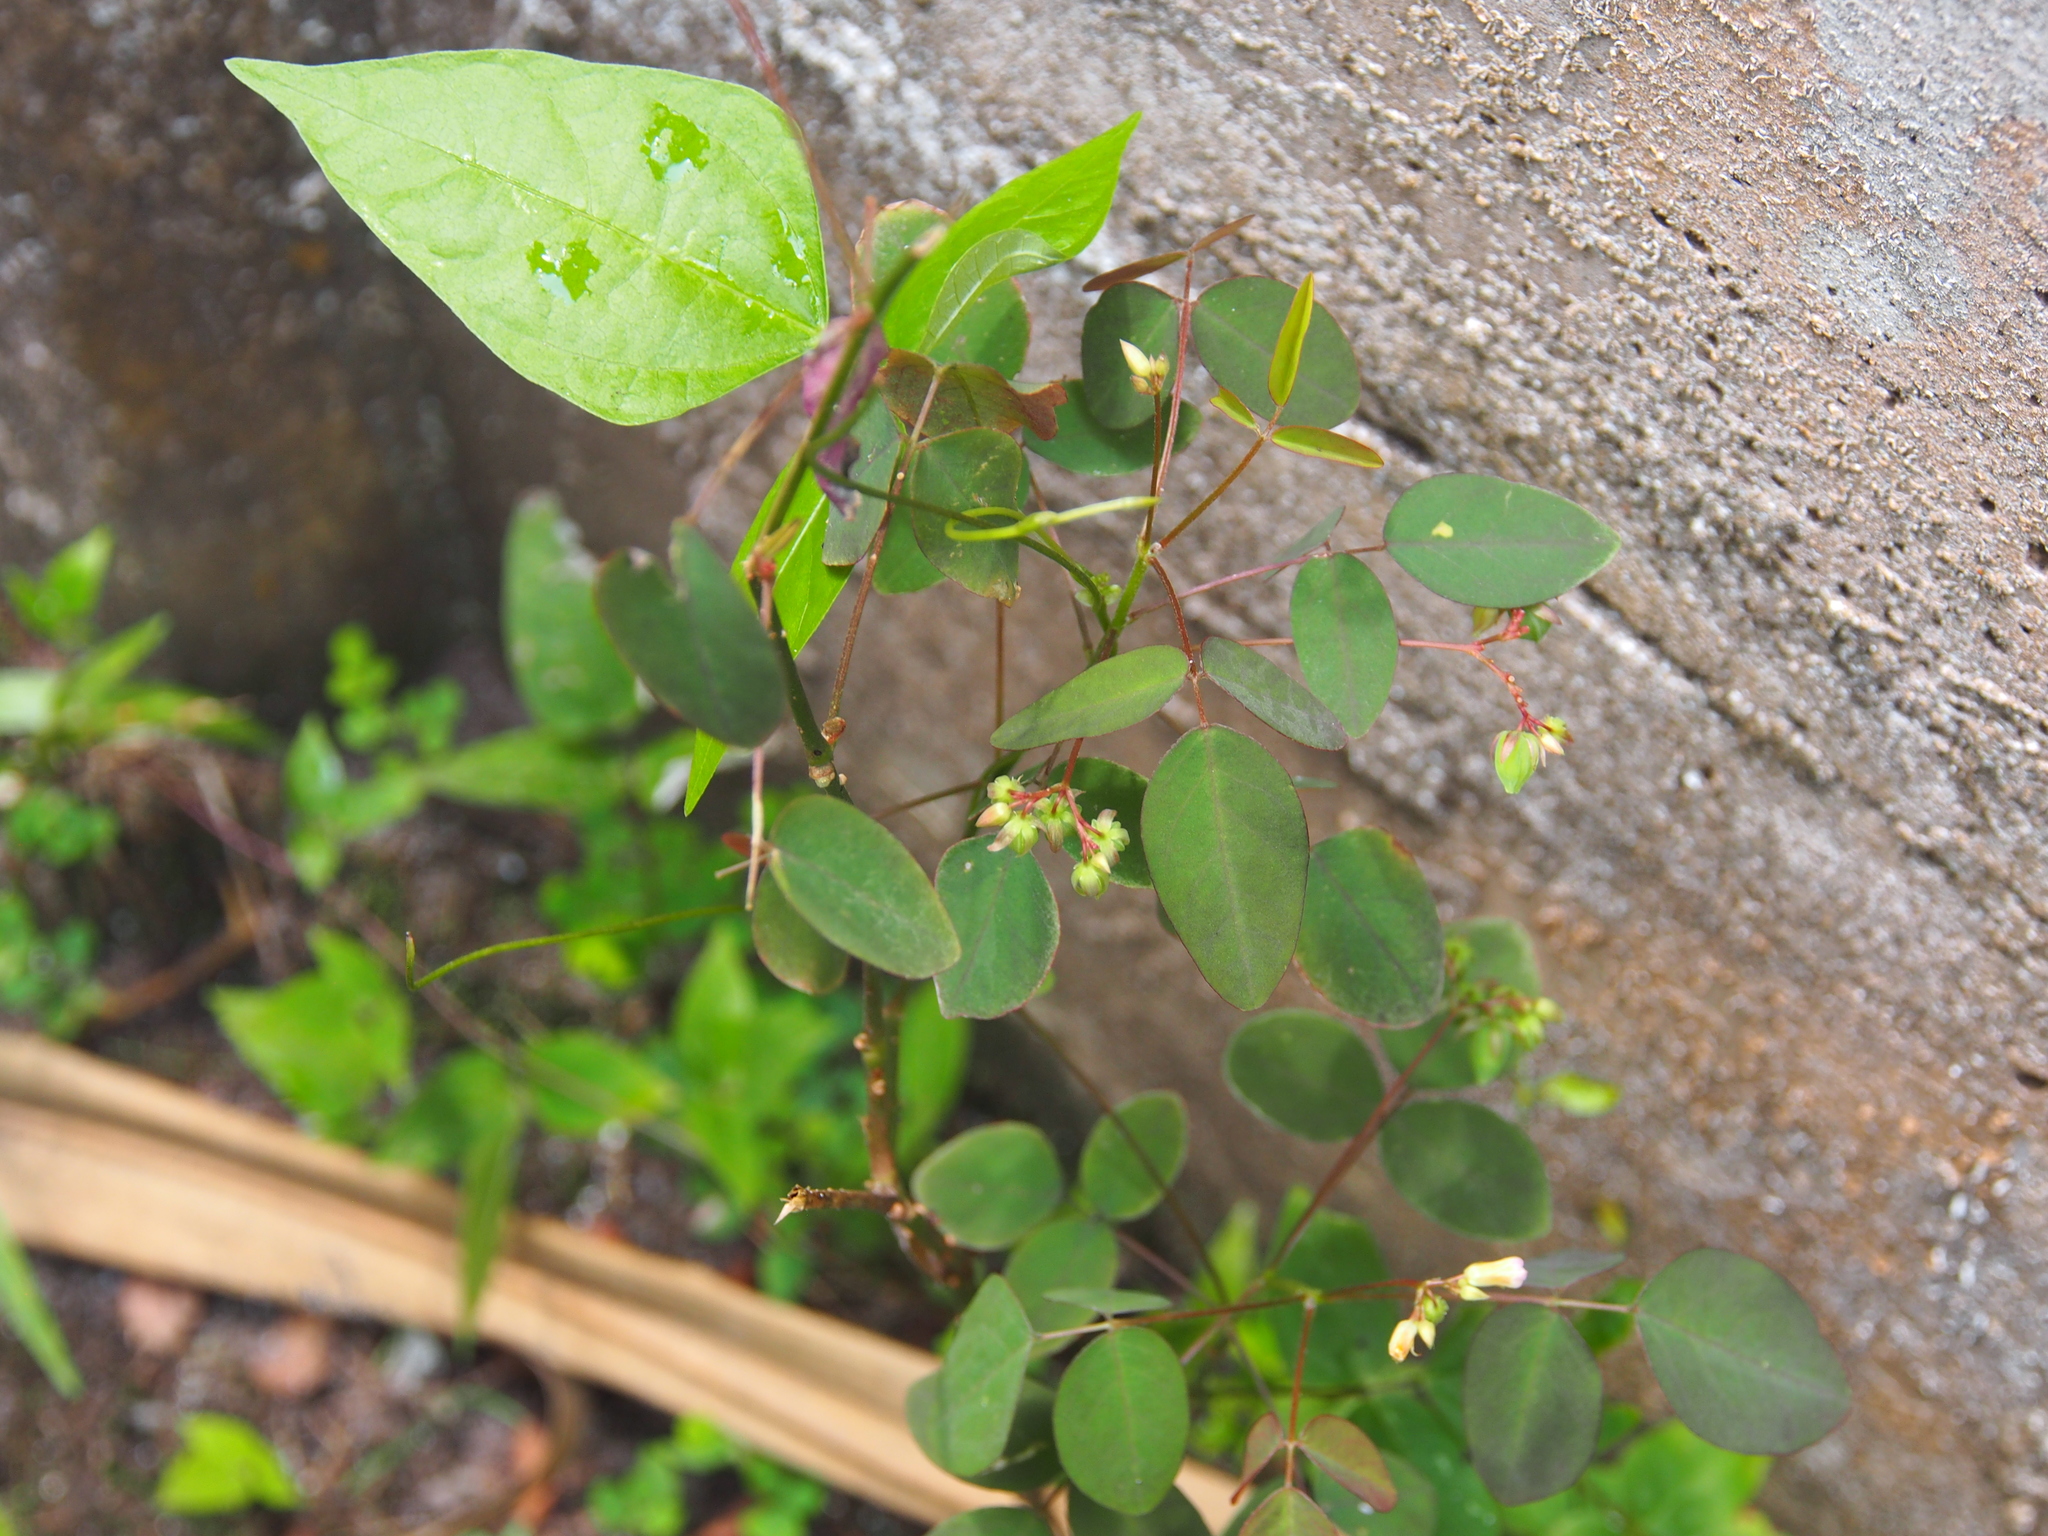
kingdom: Plantae
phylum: Tracheophyta
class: Magnoliopsida
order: Oxalidales
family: Oxalidaceae
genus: Oxalis
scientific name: Oxalis barrelieri
